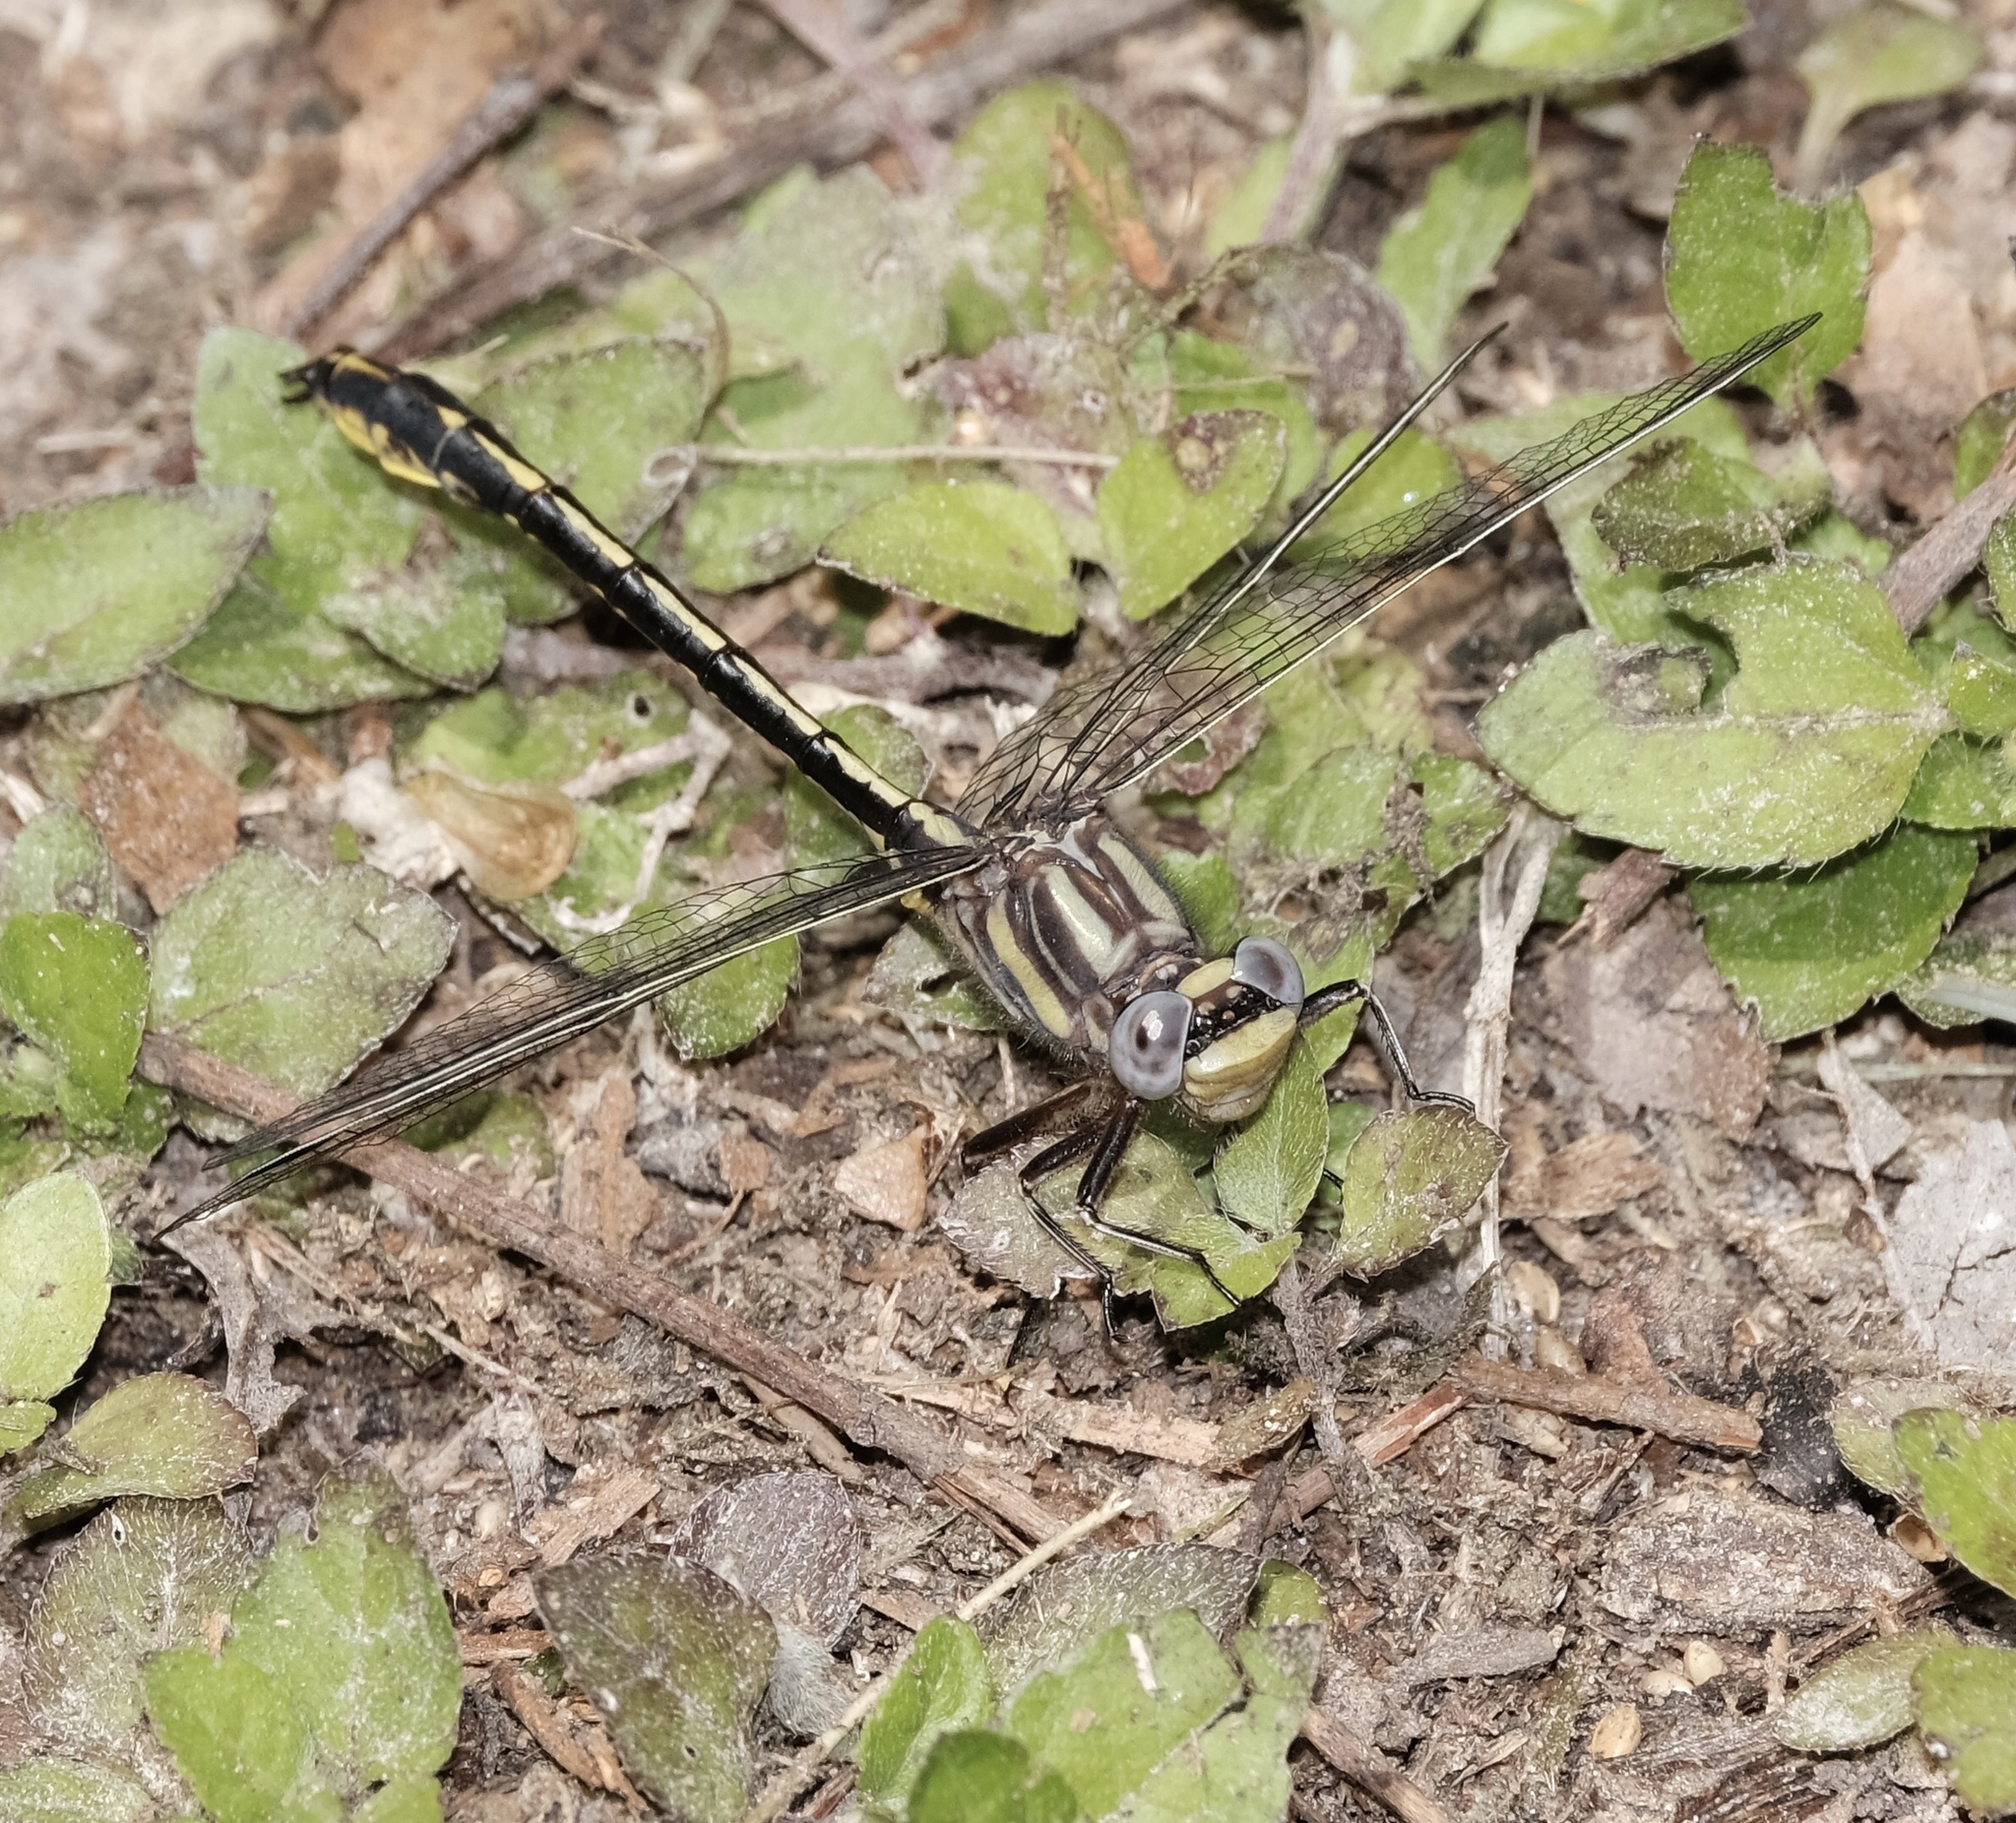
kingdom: Animalia
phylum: Arthropoda
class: Insecta
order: Odonata
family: Gomphidae
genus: Phanogomphus
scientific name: Phanogomphus oklahomensis
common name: Oklahoma clubtail
